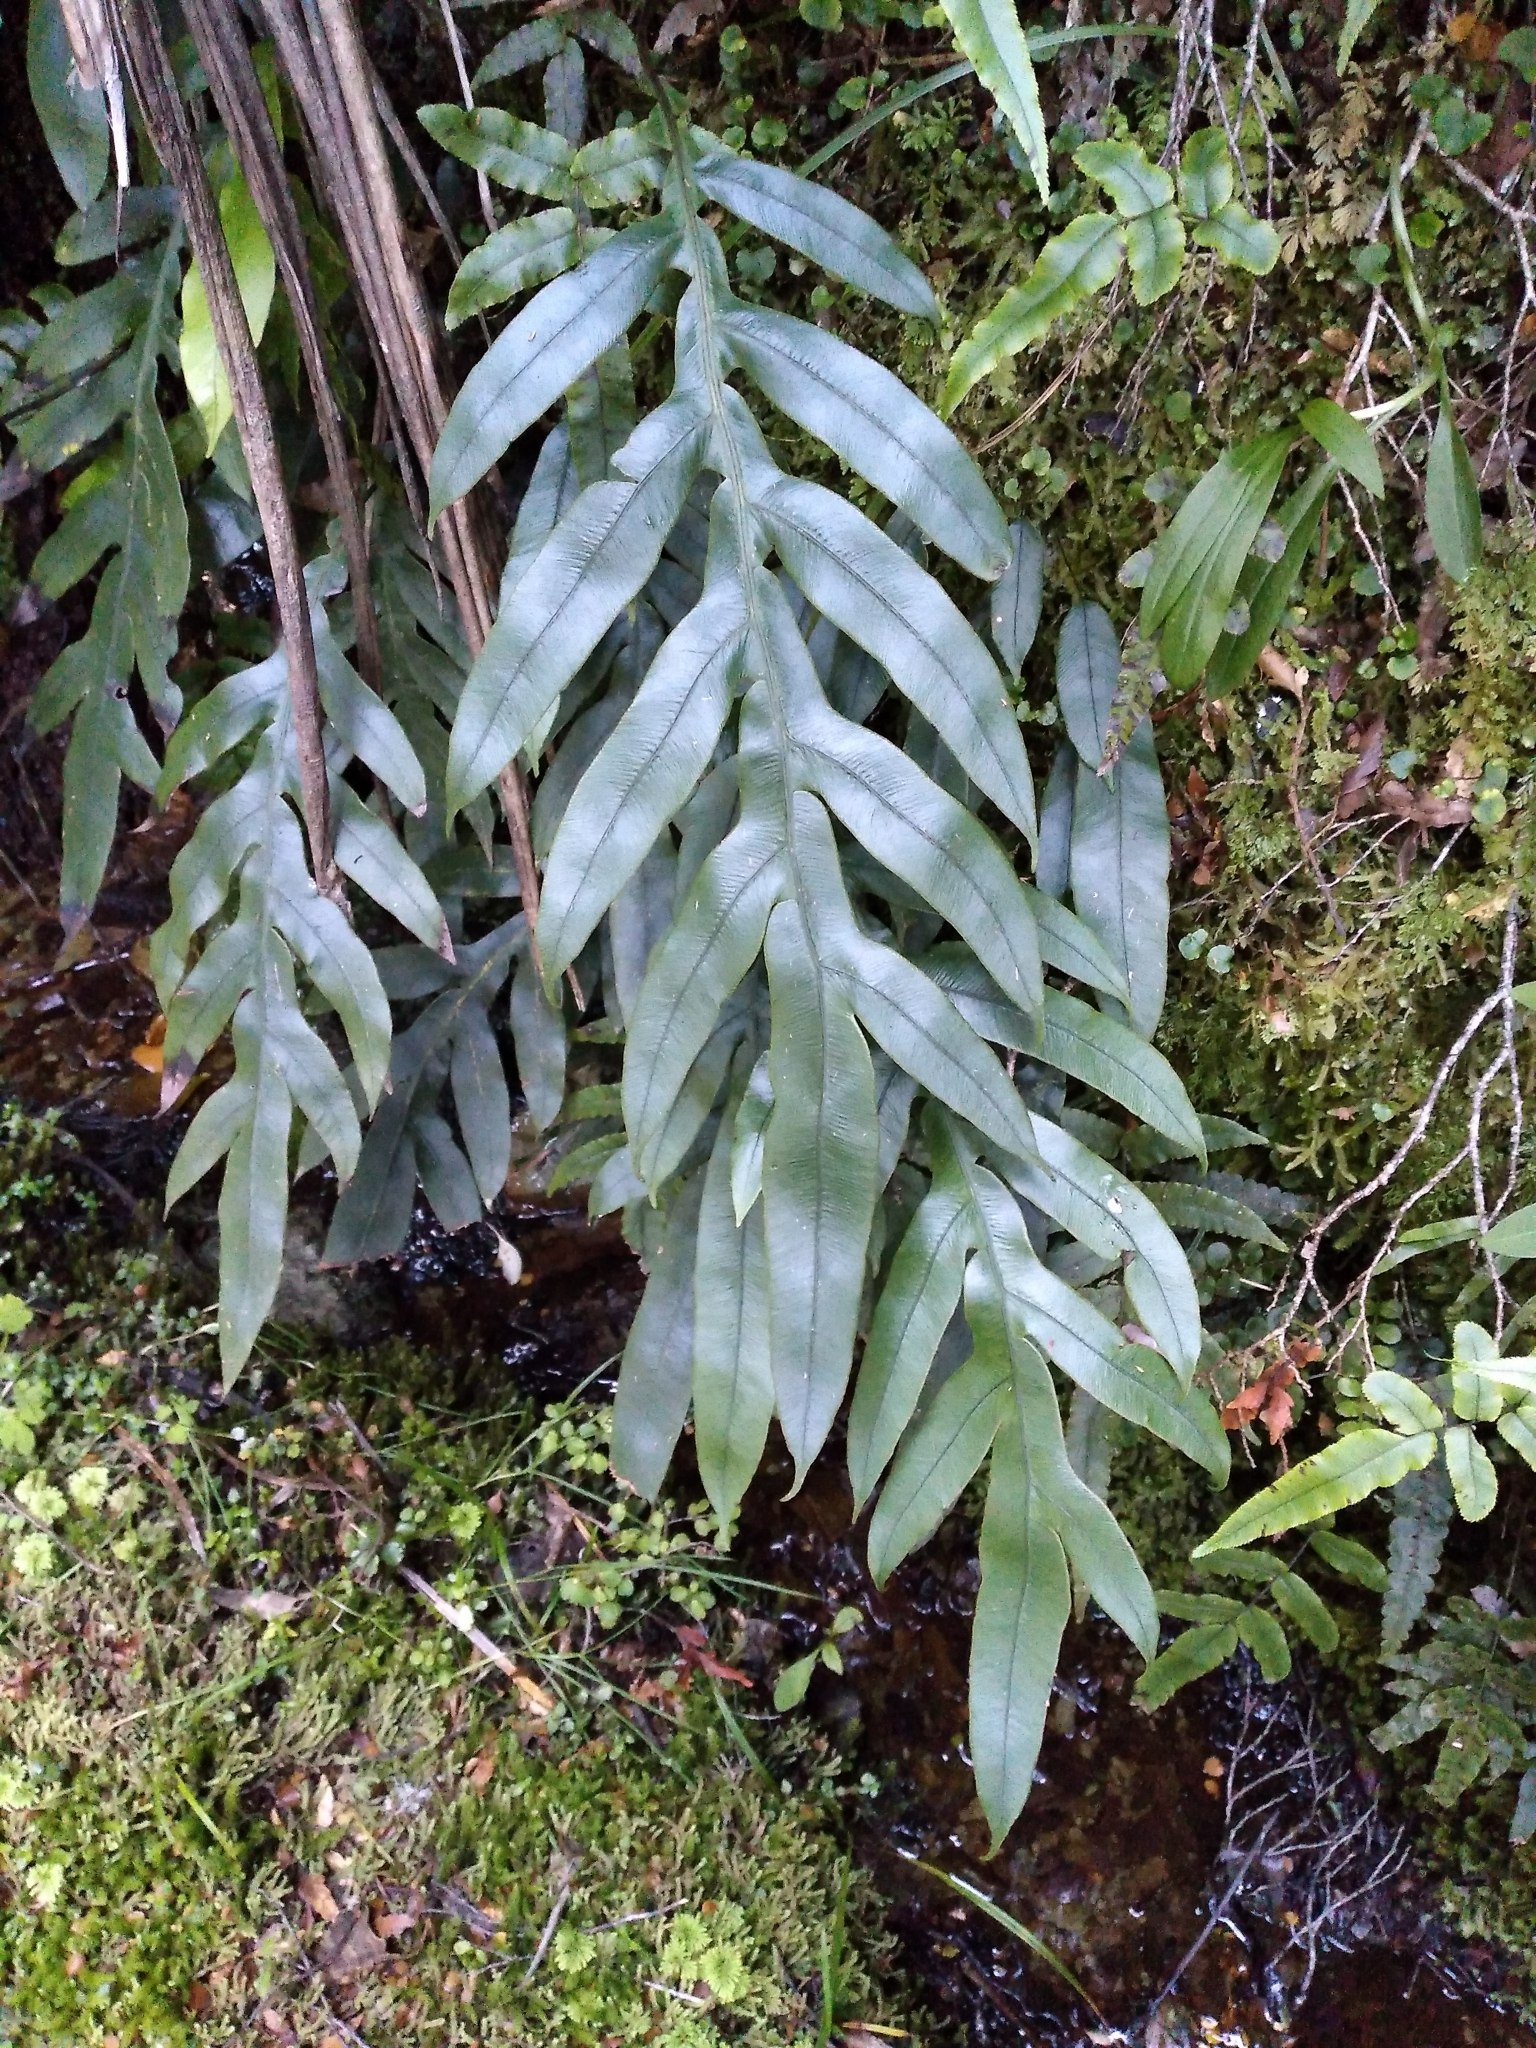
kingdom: Plantae
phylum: Tracheophyta
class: Polypodiopsida
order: Polypodiales
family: Blechnaceae
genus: Austroblechnum
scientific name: Austroblechnum colensoi
